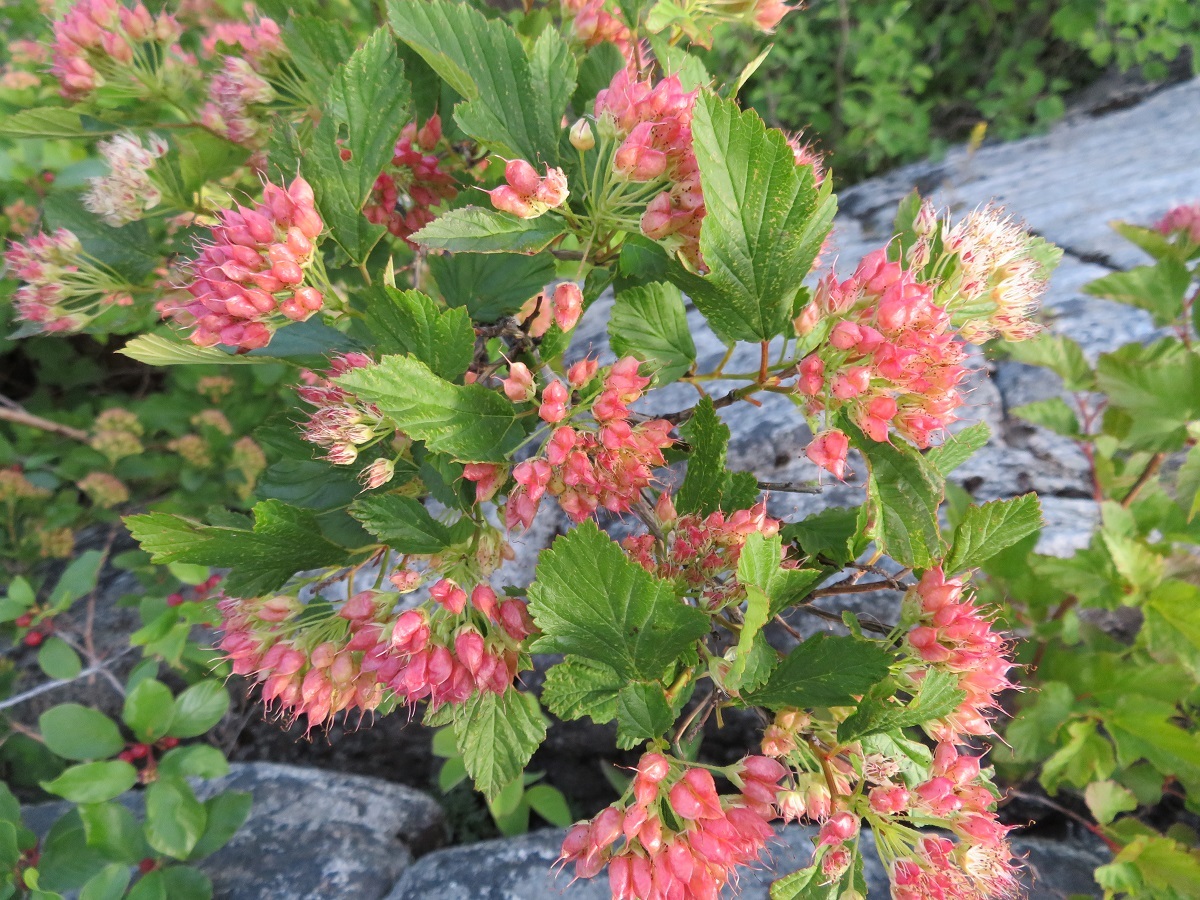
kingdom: Plantae
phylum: Tracheophyta
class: Magnoliopsida
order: Rosales
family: Rosaceae
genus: Physocarpus
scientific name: Physocarpus opulifolius
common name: Ninebark
